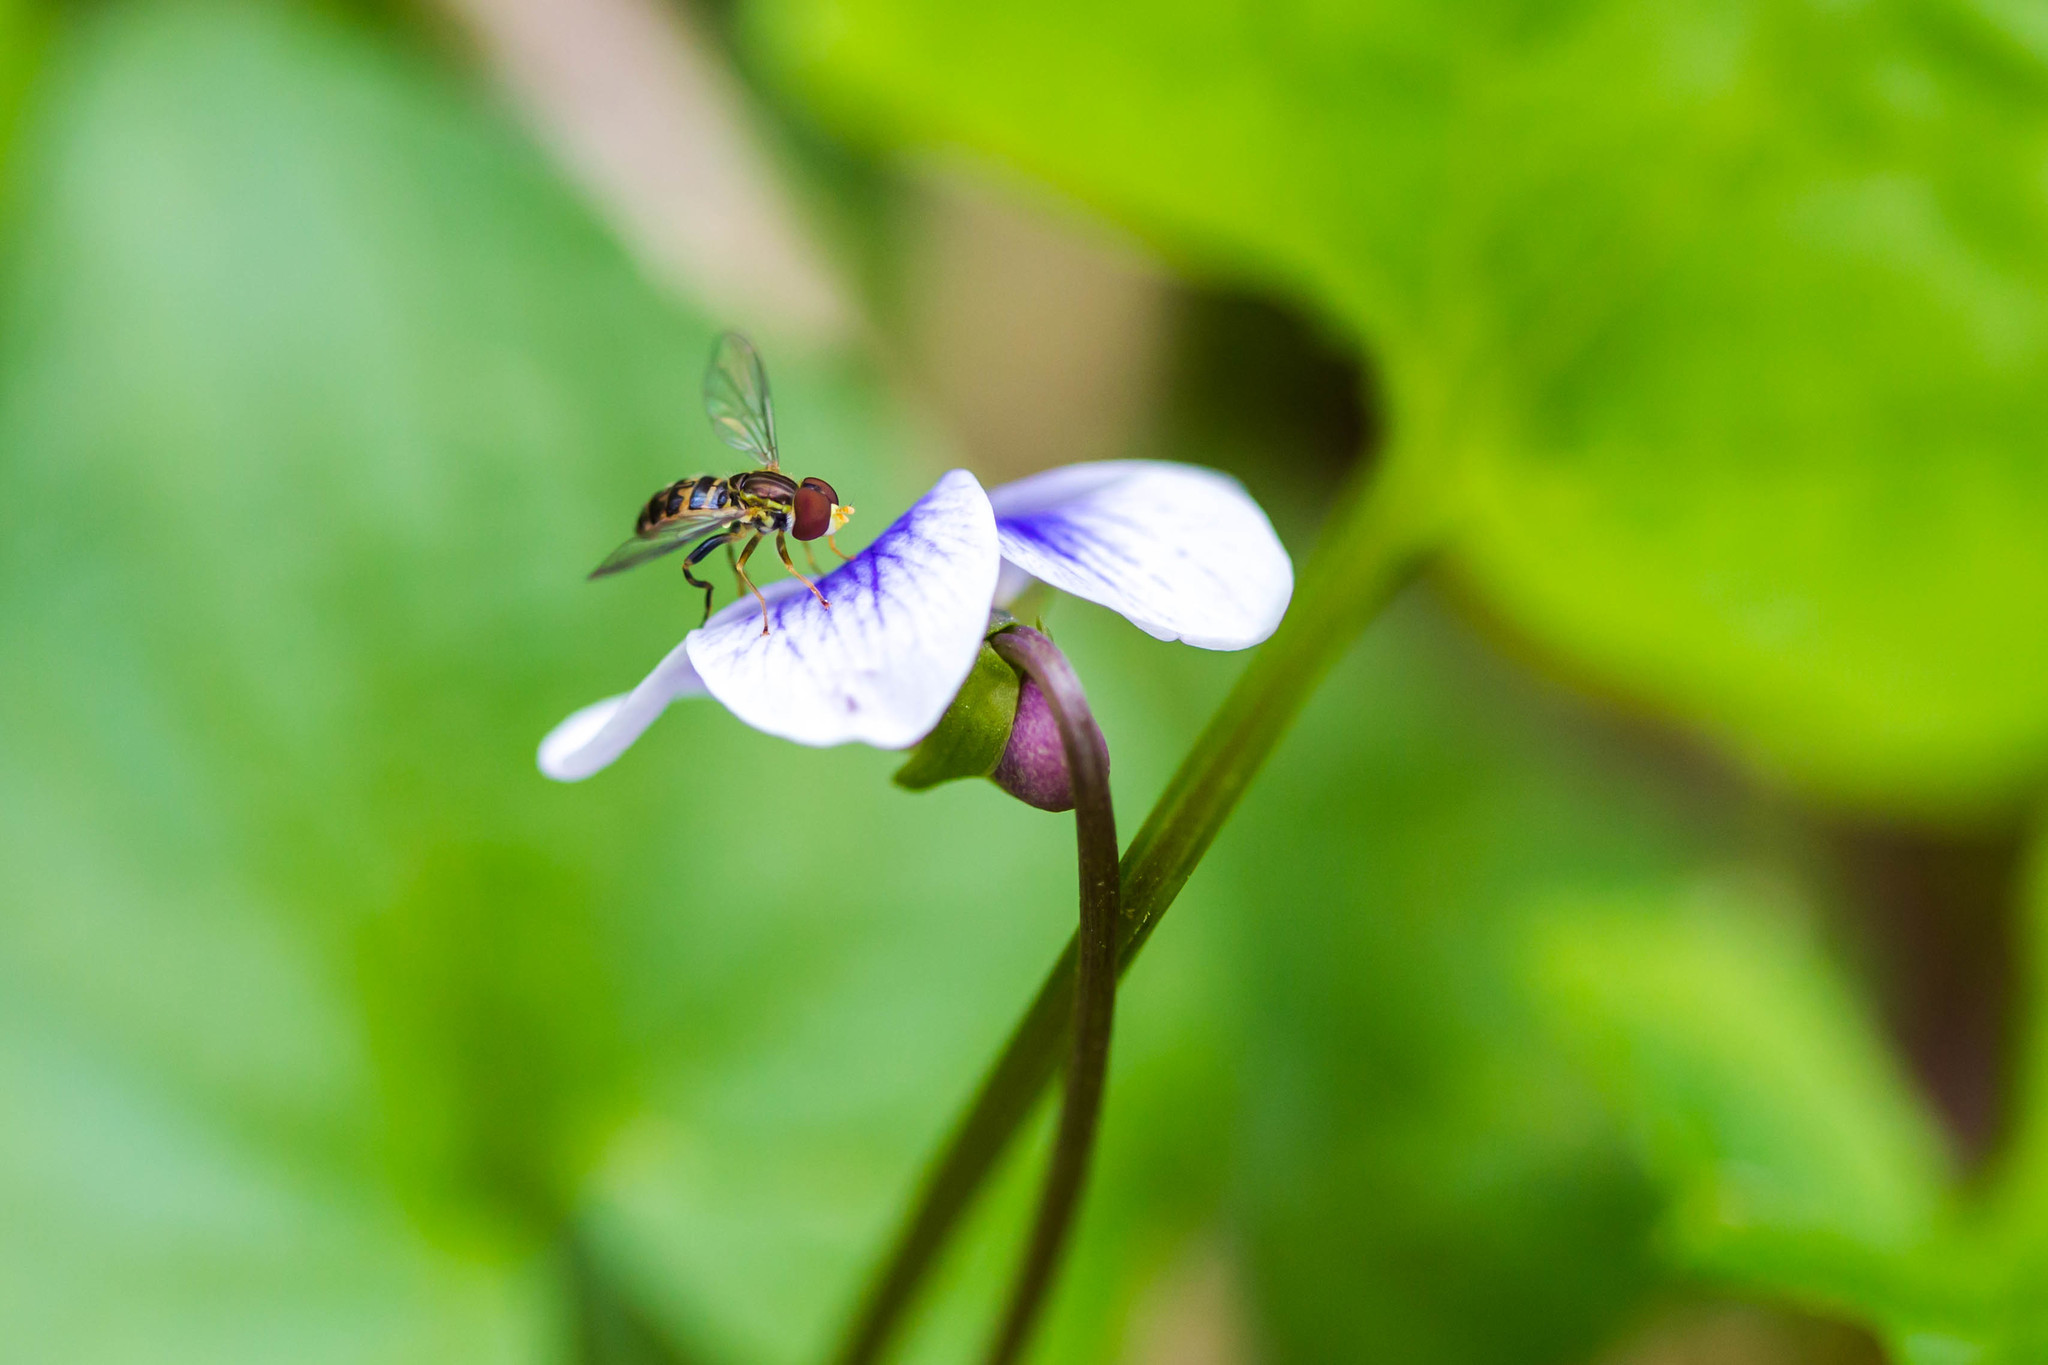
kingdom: Animalia
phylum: Arthropoda
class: Insecta
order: Diptera
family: Syrphidae
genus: Toxomerus
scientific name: Toxomerus geminatus
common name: Eastern calligrapher
